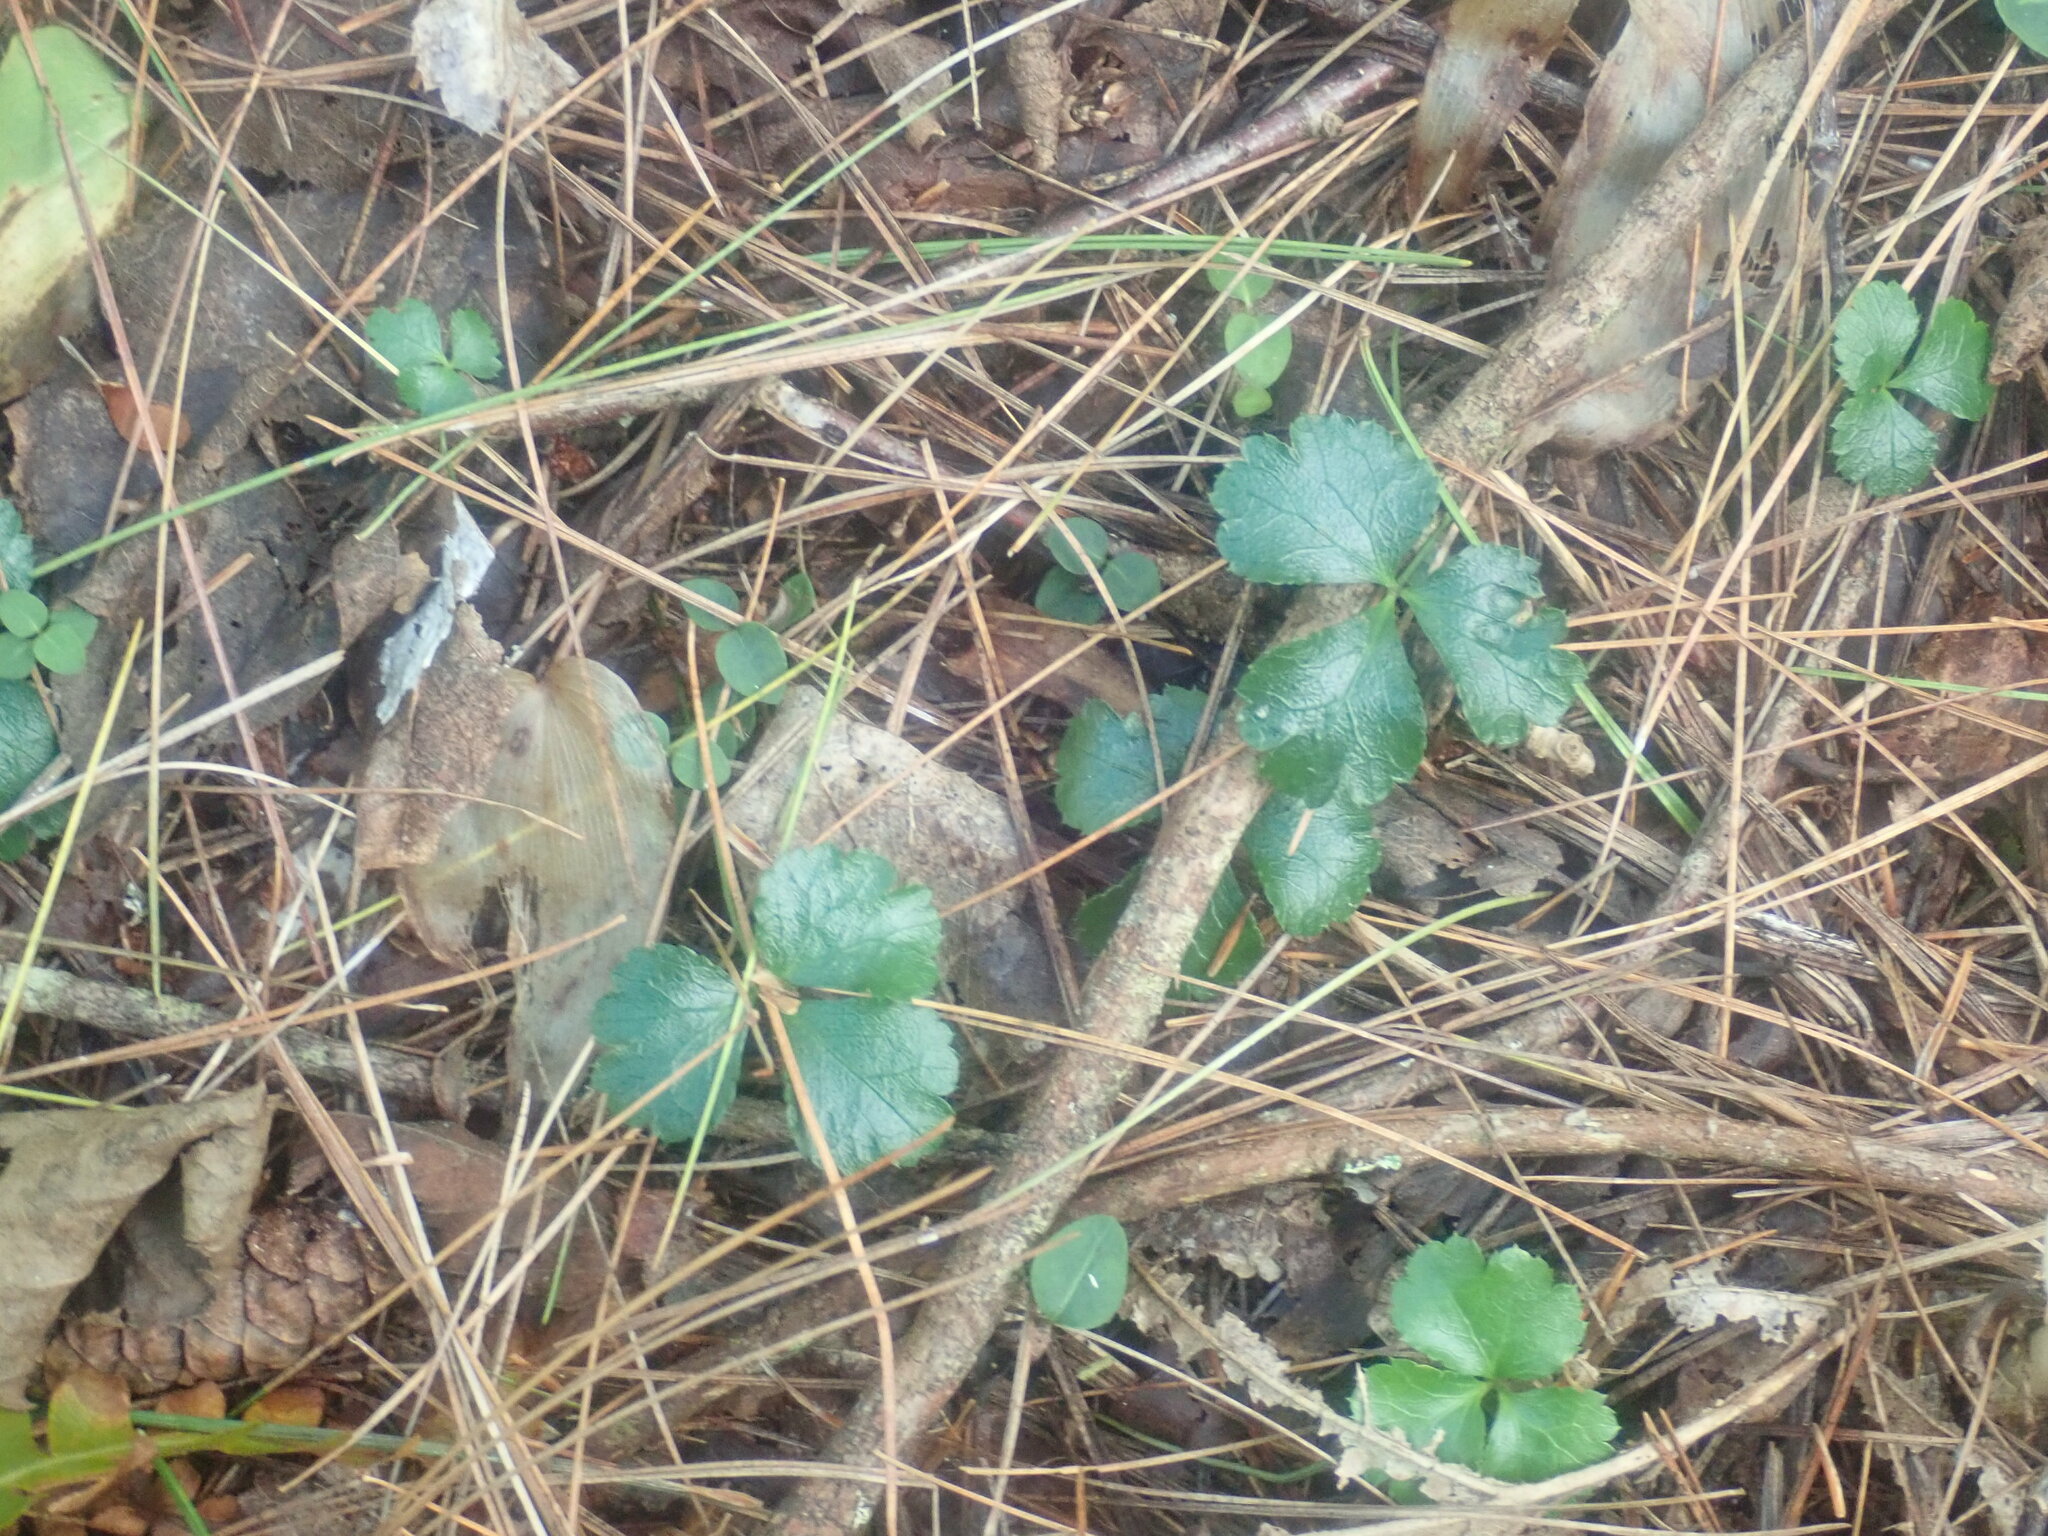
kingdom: Plantae
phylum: Tracheophyta
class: Magnoliopsida
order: Ranunculales
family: Ranunculaceae
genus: Coptis
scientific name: Coptis trifolia
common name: Canker-root
